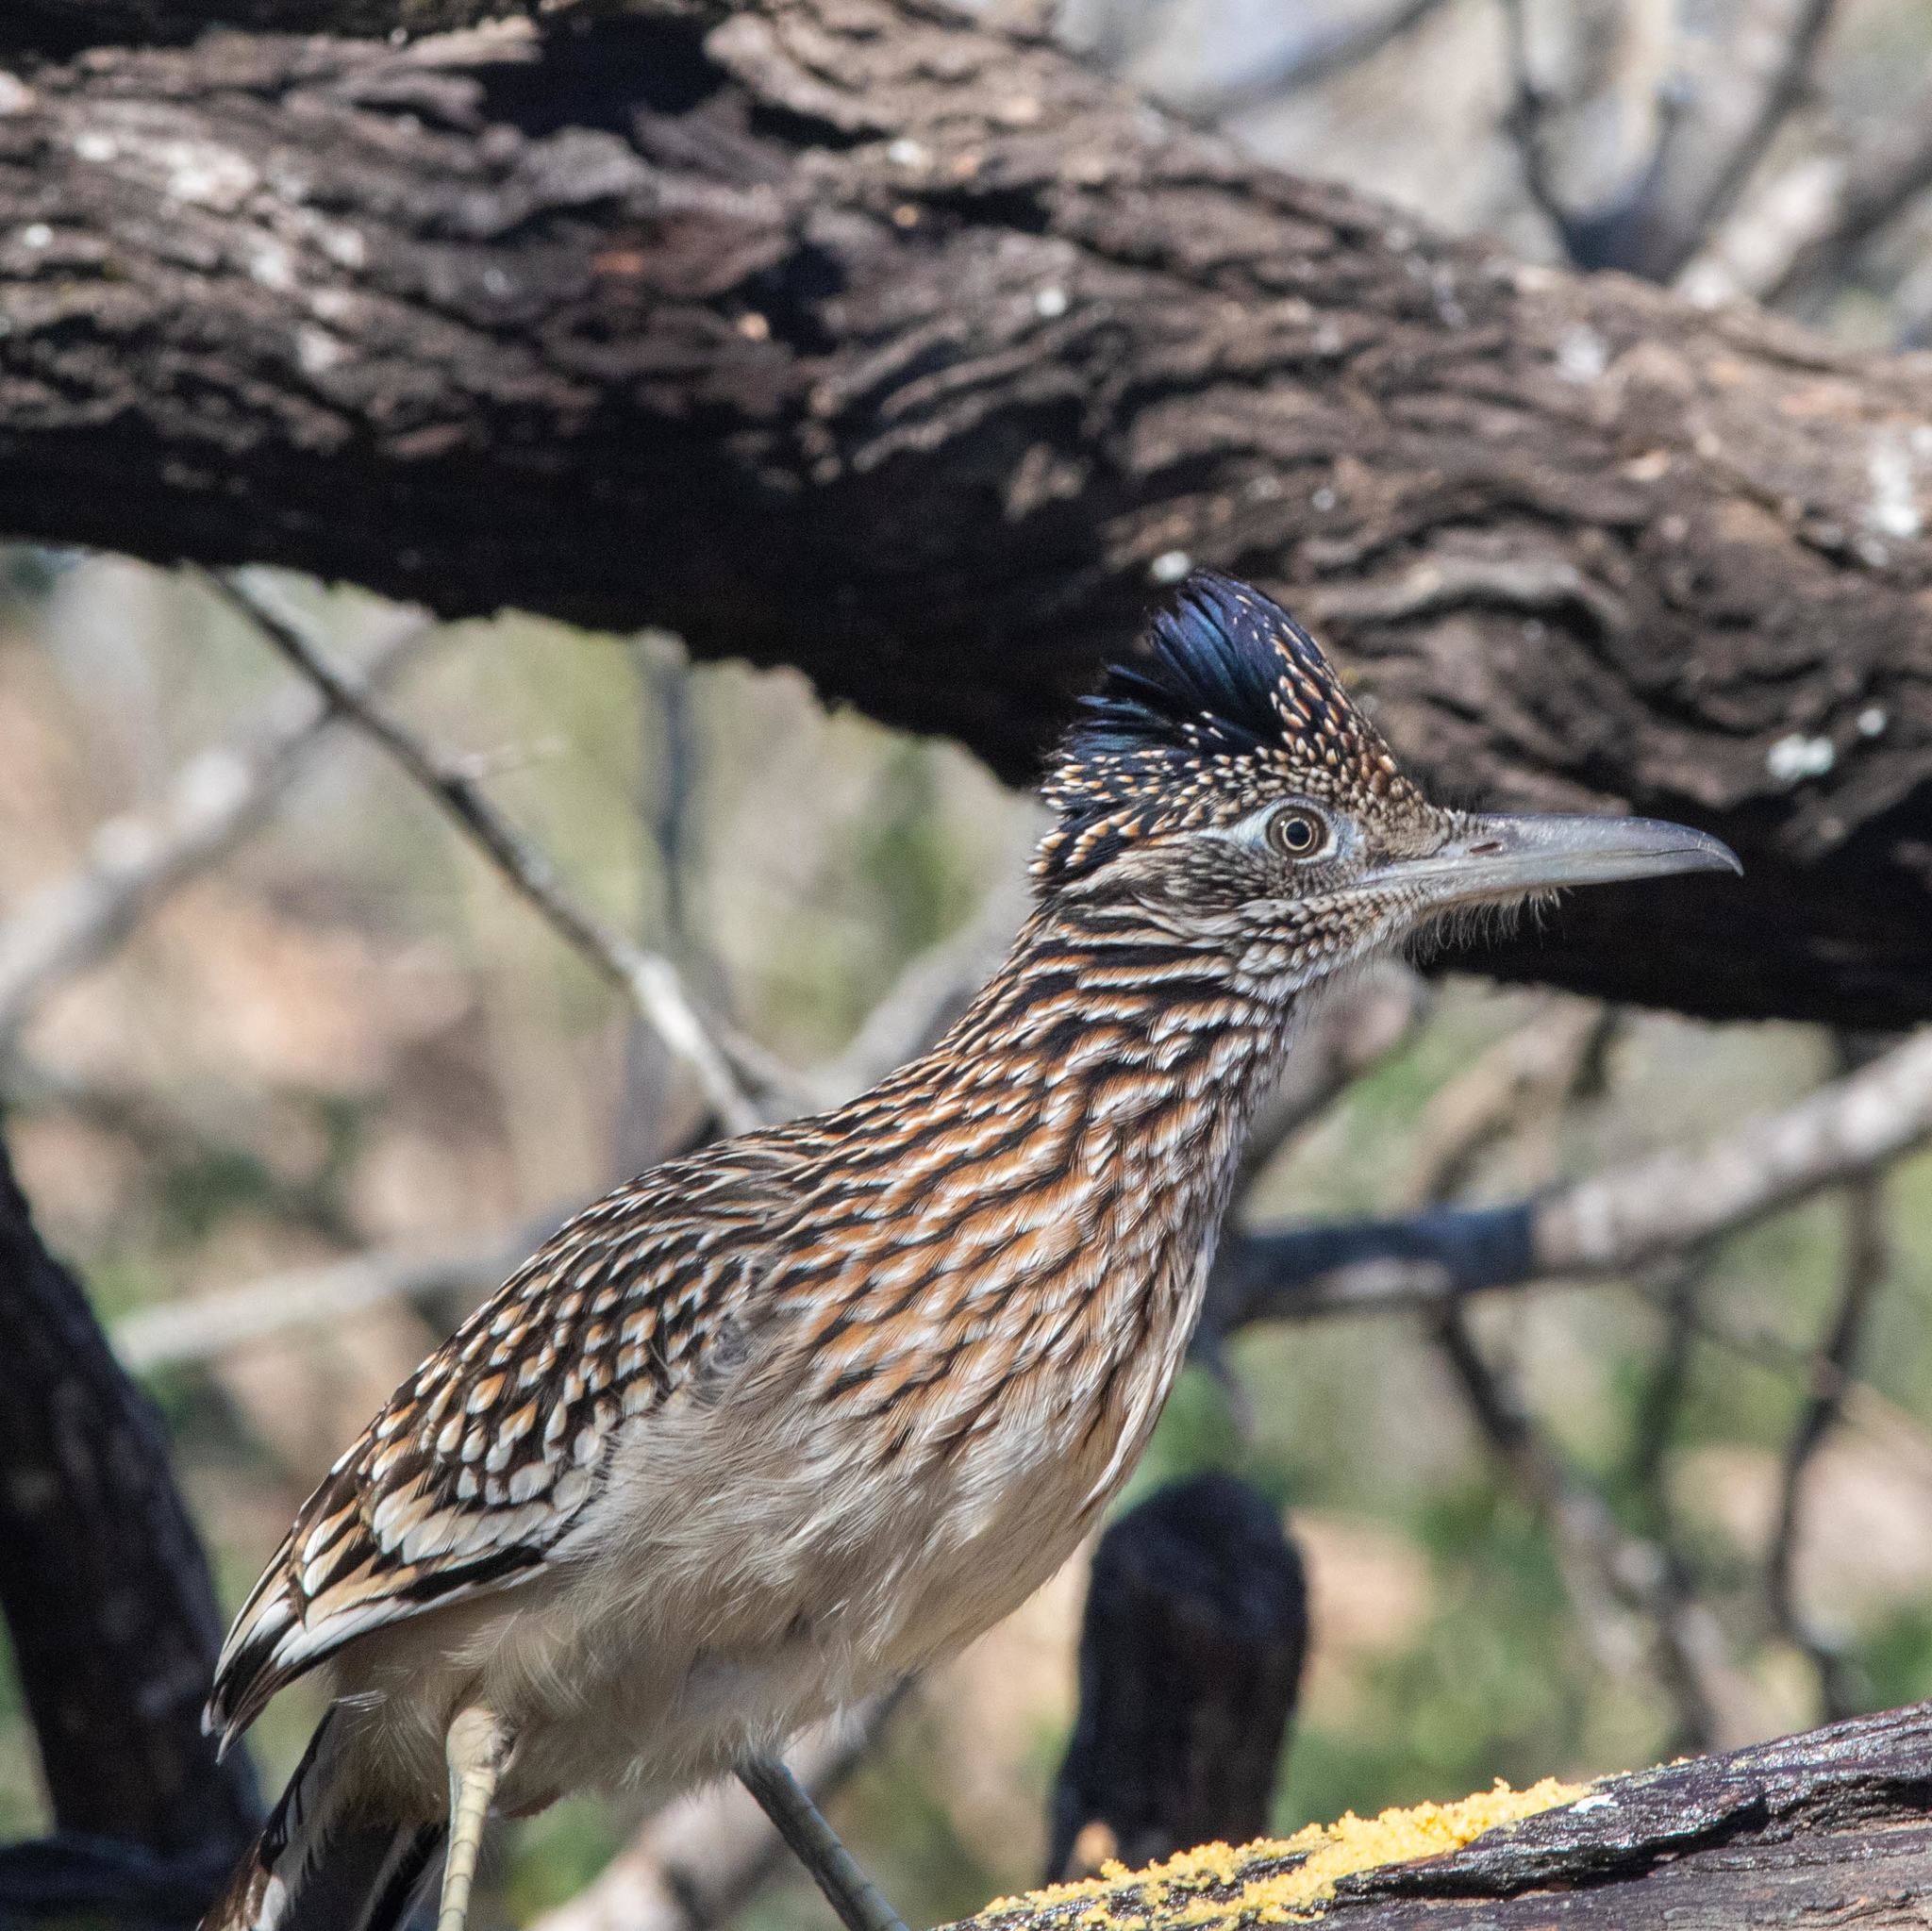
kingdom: Animalia
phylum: Chordata
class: Aves
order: Cuculiformes
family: Cuculidae
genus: Geococcyx
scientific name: Geococcyx californianus
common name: Greater roadrunner
